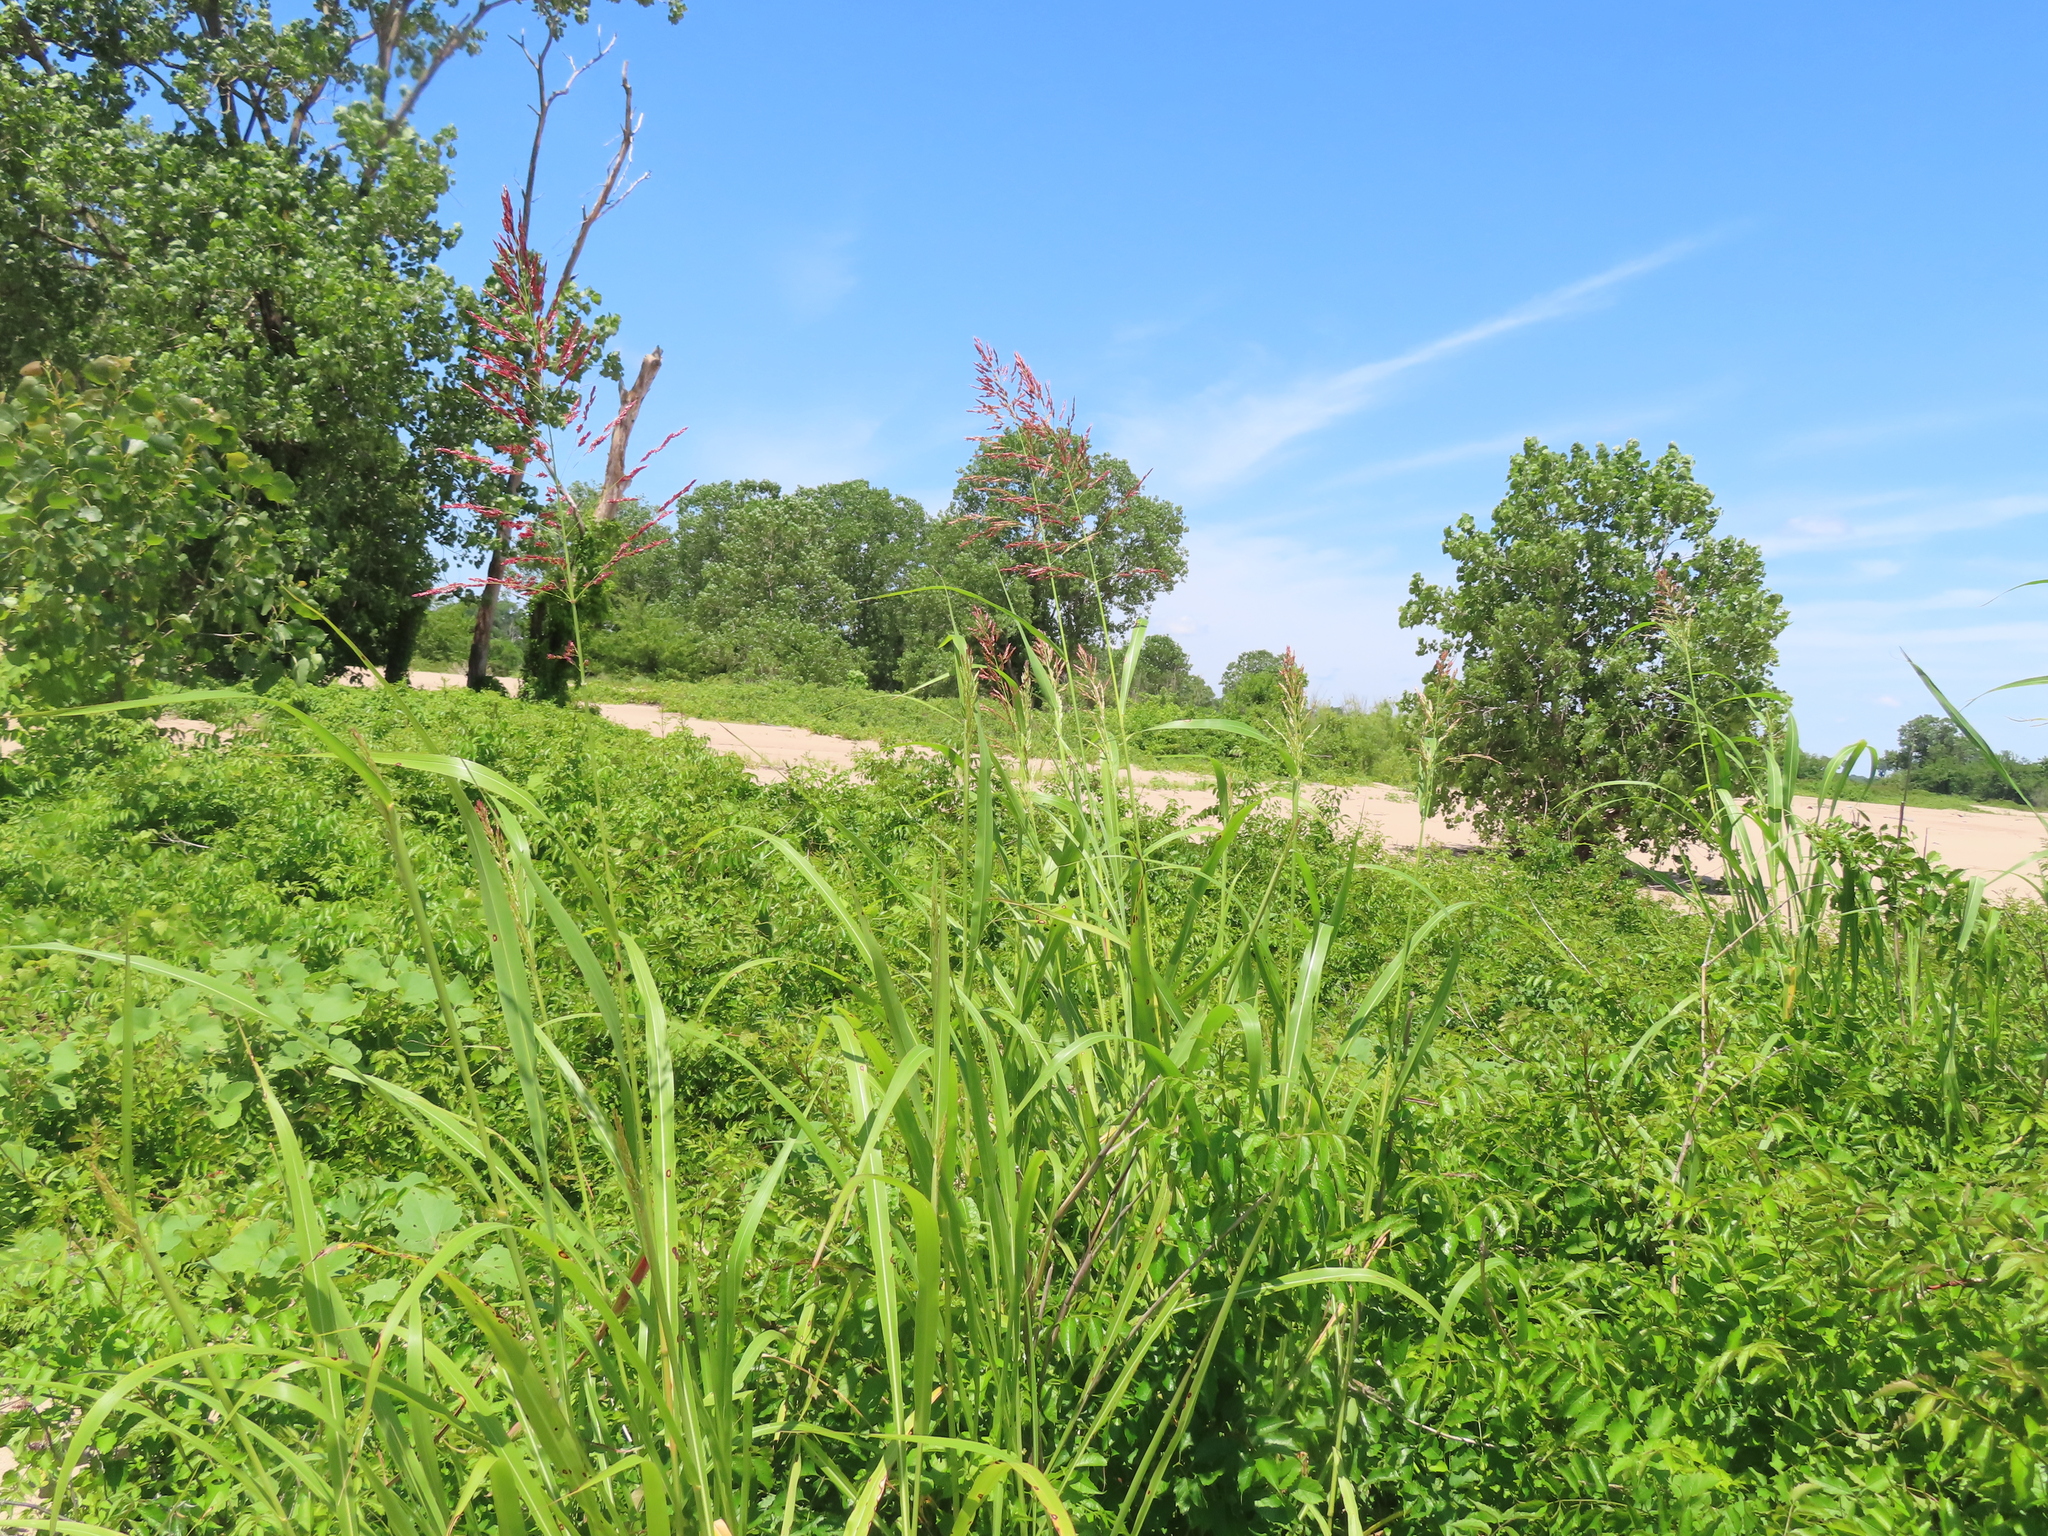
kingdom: Plantae
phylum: Tracheophyta
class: Liliopsida
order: Poales
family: Poaceae
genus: Sorghum
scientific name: Sorghum halepense
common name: Johnson-grass
